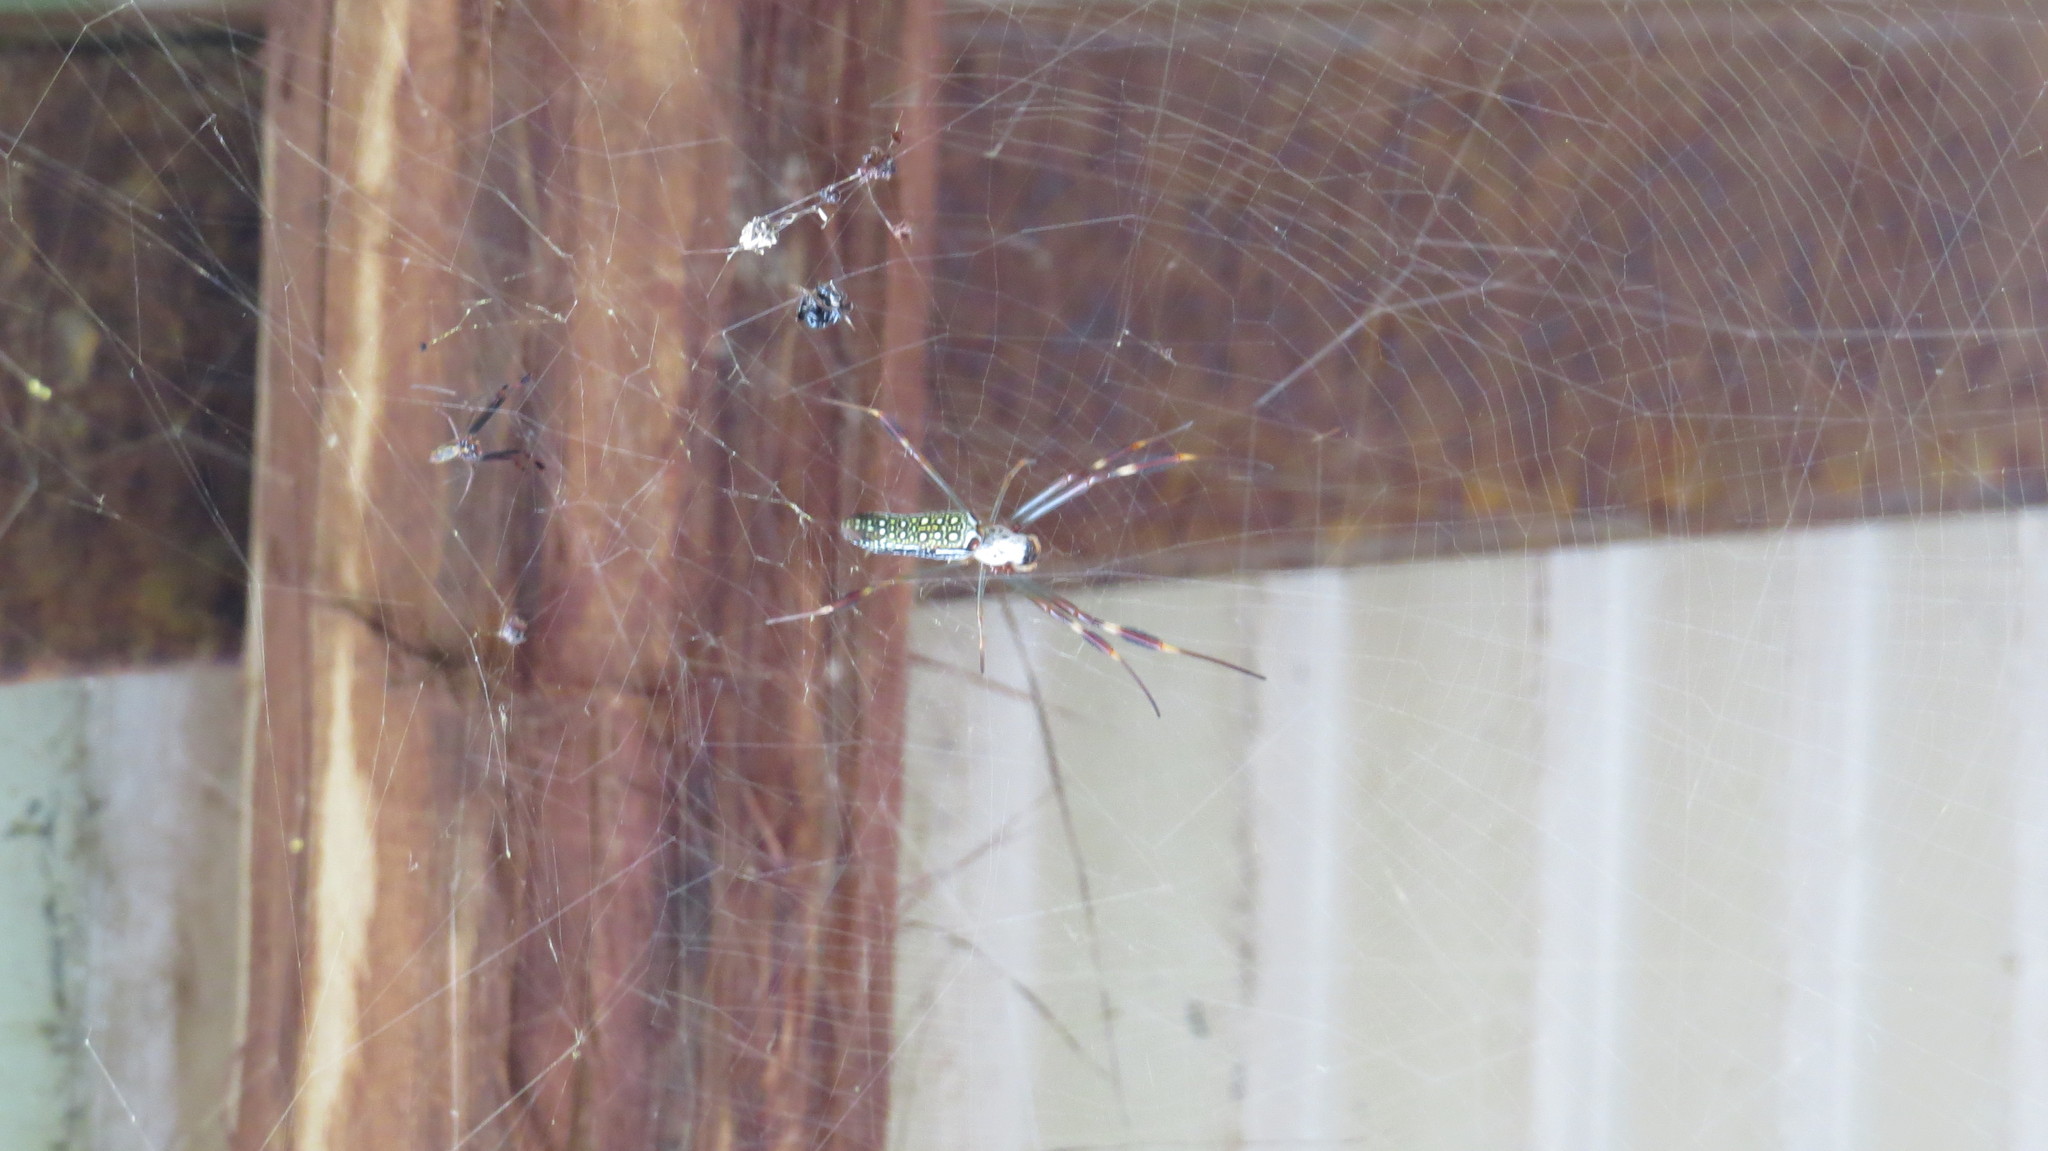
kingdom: Animalia
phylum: Arthropoda
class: Arachnida
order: Araneae
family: Araneidae
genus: Trichonephila
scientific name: Trichonephila clavipes
